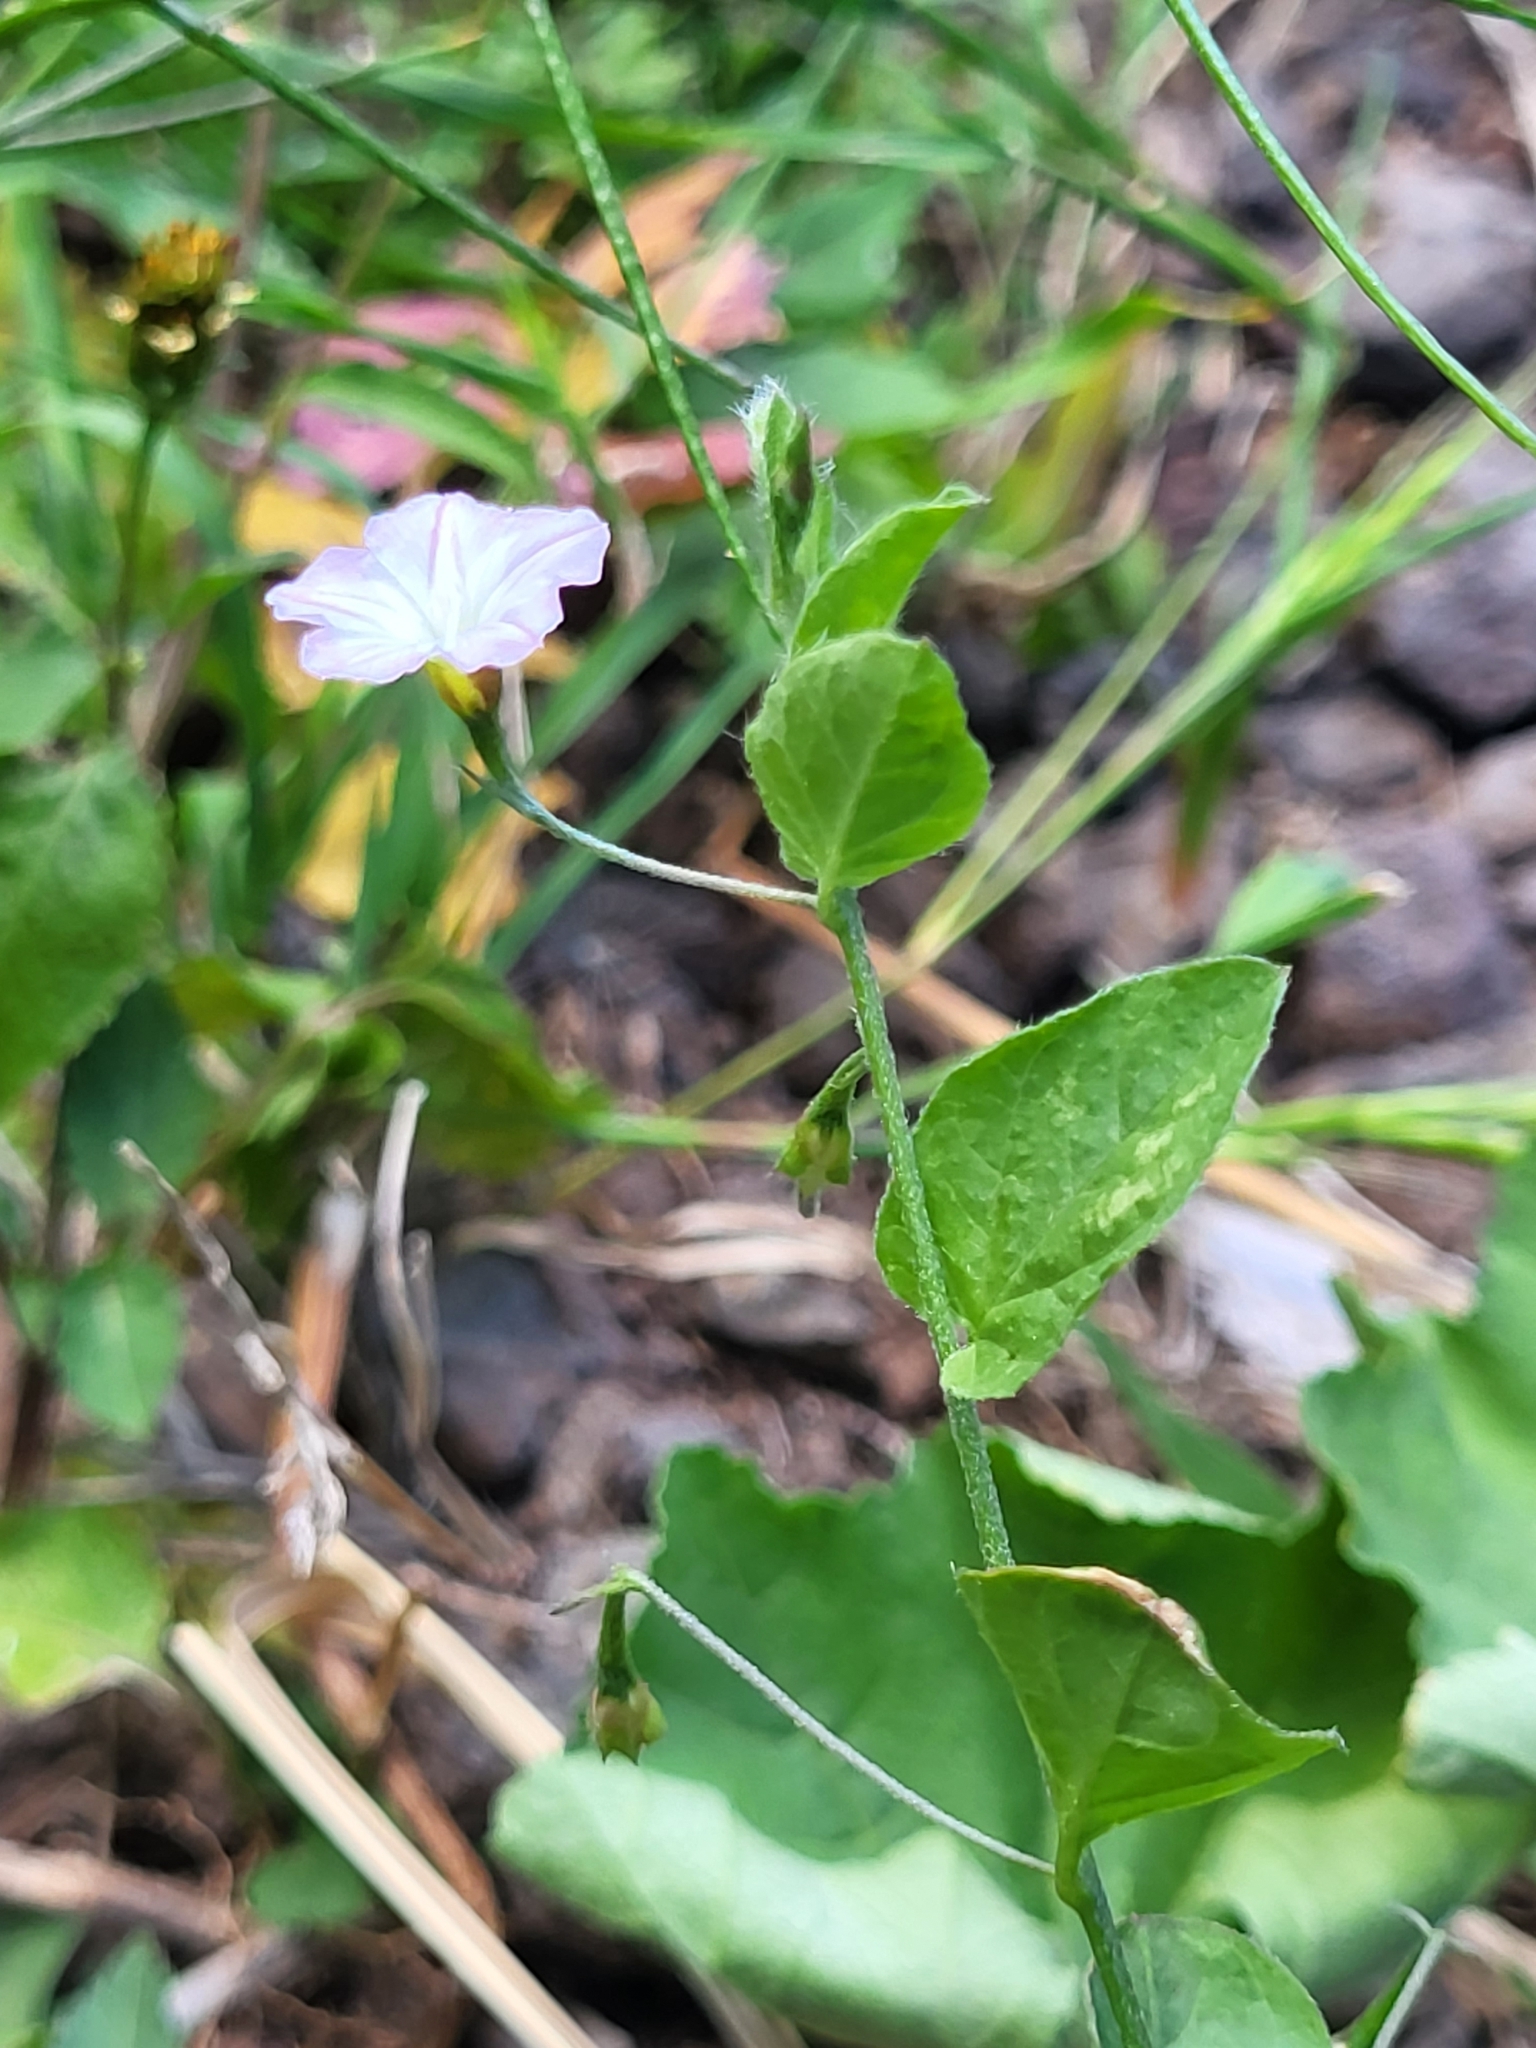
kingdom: Plantae
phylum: Tracheophyta
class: Magnoliopsida
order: Solanales
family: Convolvulaceae
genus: Convolvulus
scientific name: Convolvulus siculus
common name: Small blue-convolvulus
